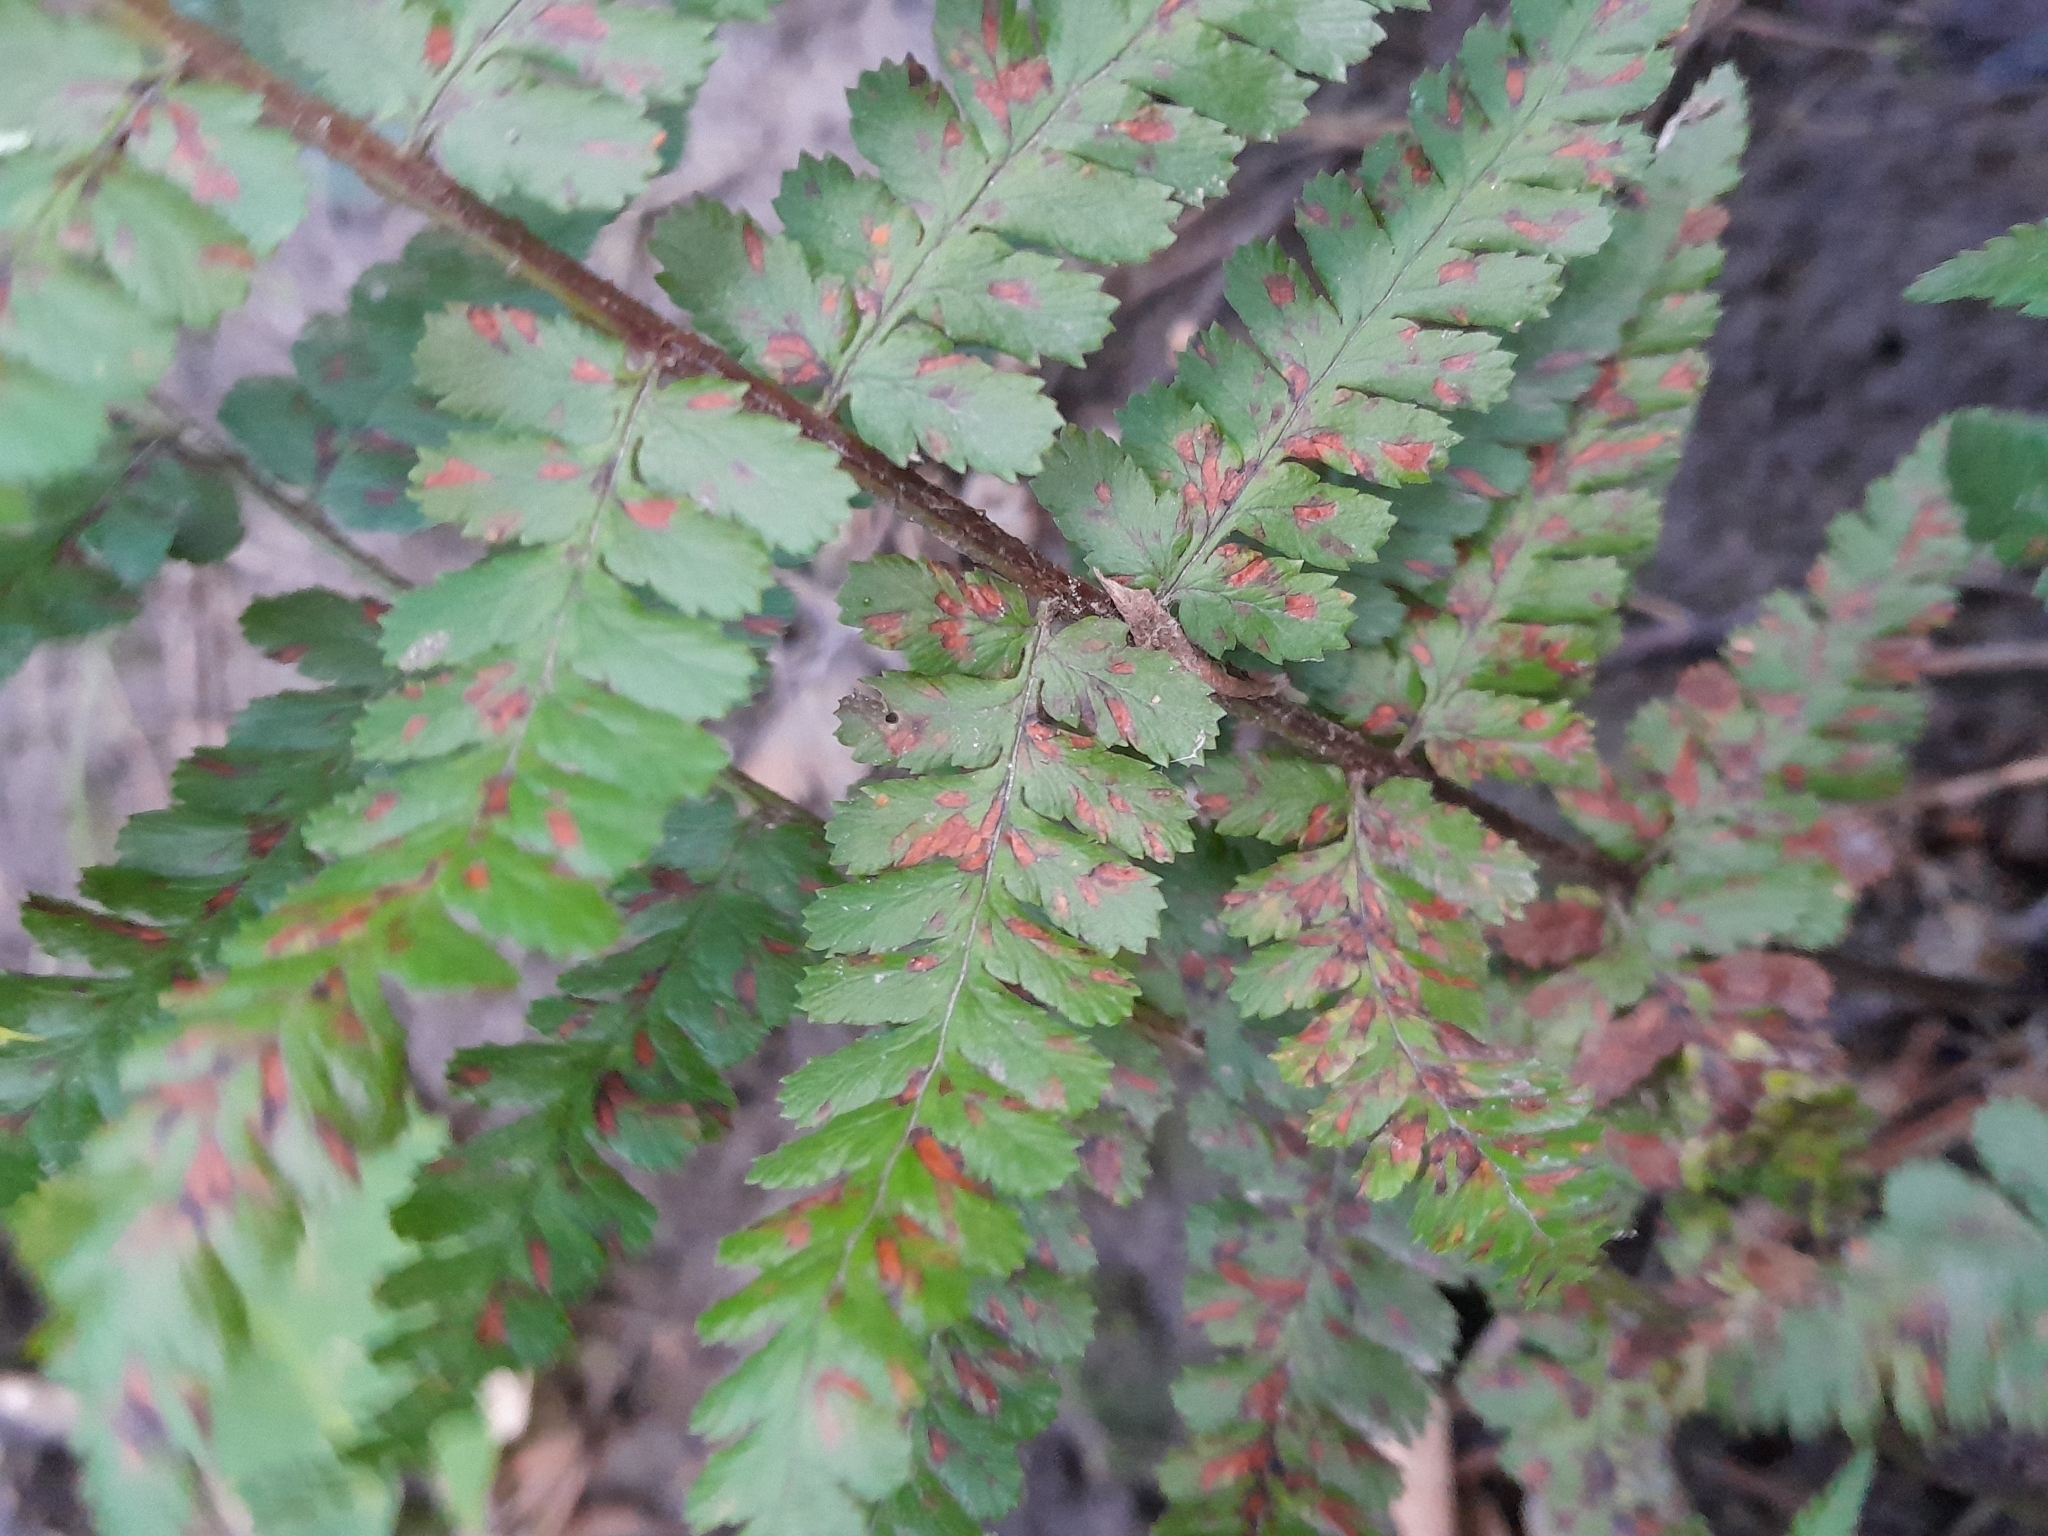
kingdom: Plantae
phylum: Tracheophyta
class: Polypodiopsida
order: Polypodiales
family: Dryopteridaceae
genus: Dryopteris
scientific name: Dryopteris filix-mas
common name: Male fern
